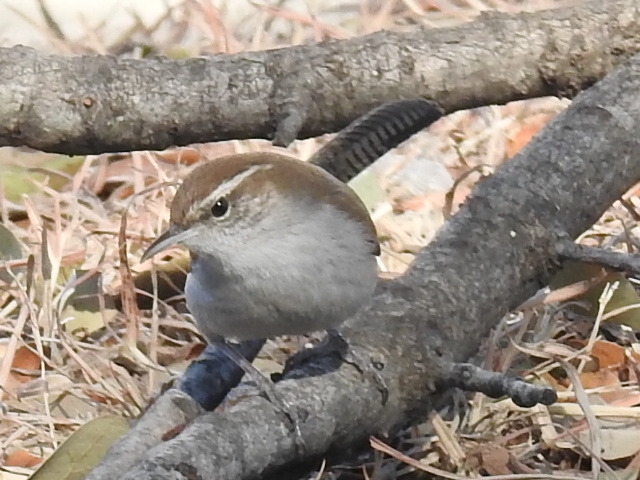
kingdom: Animalia
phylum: Chordata
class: Aves
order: Passeriformes
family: Troglodytidae
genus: Thryomanes
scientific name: Thryomanes bewickii
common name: Bewick's wren
